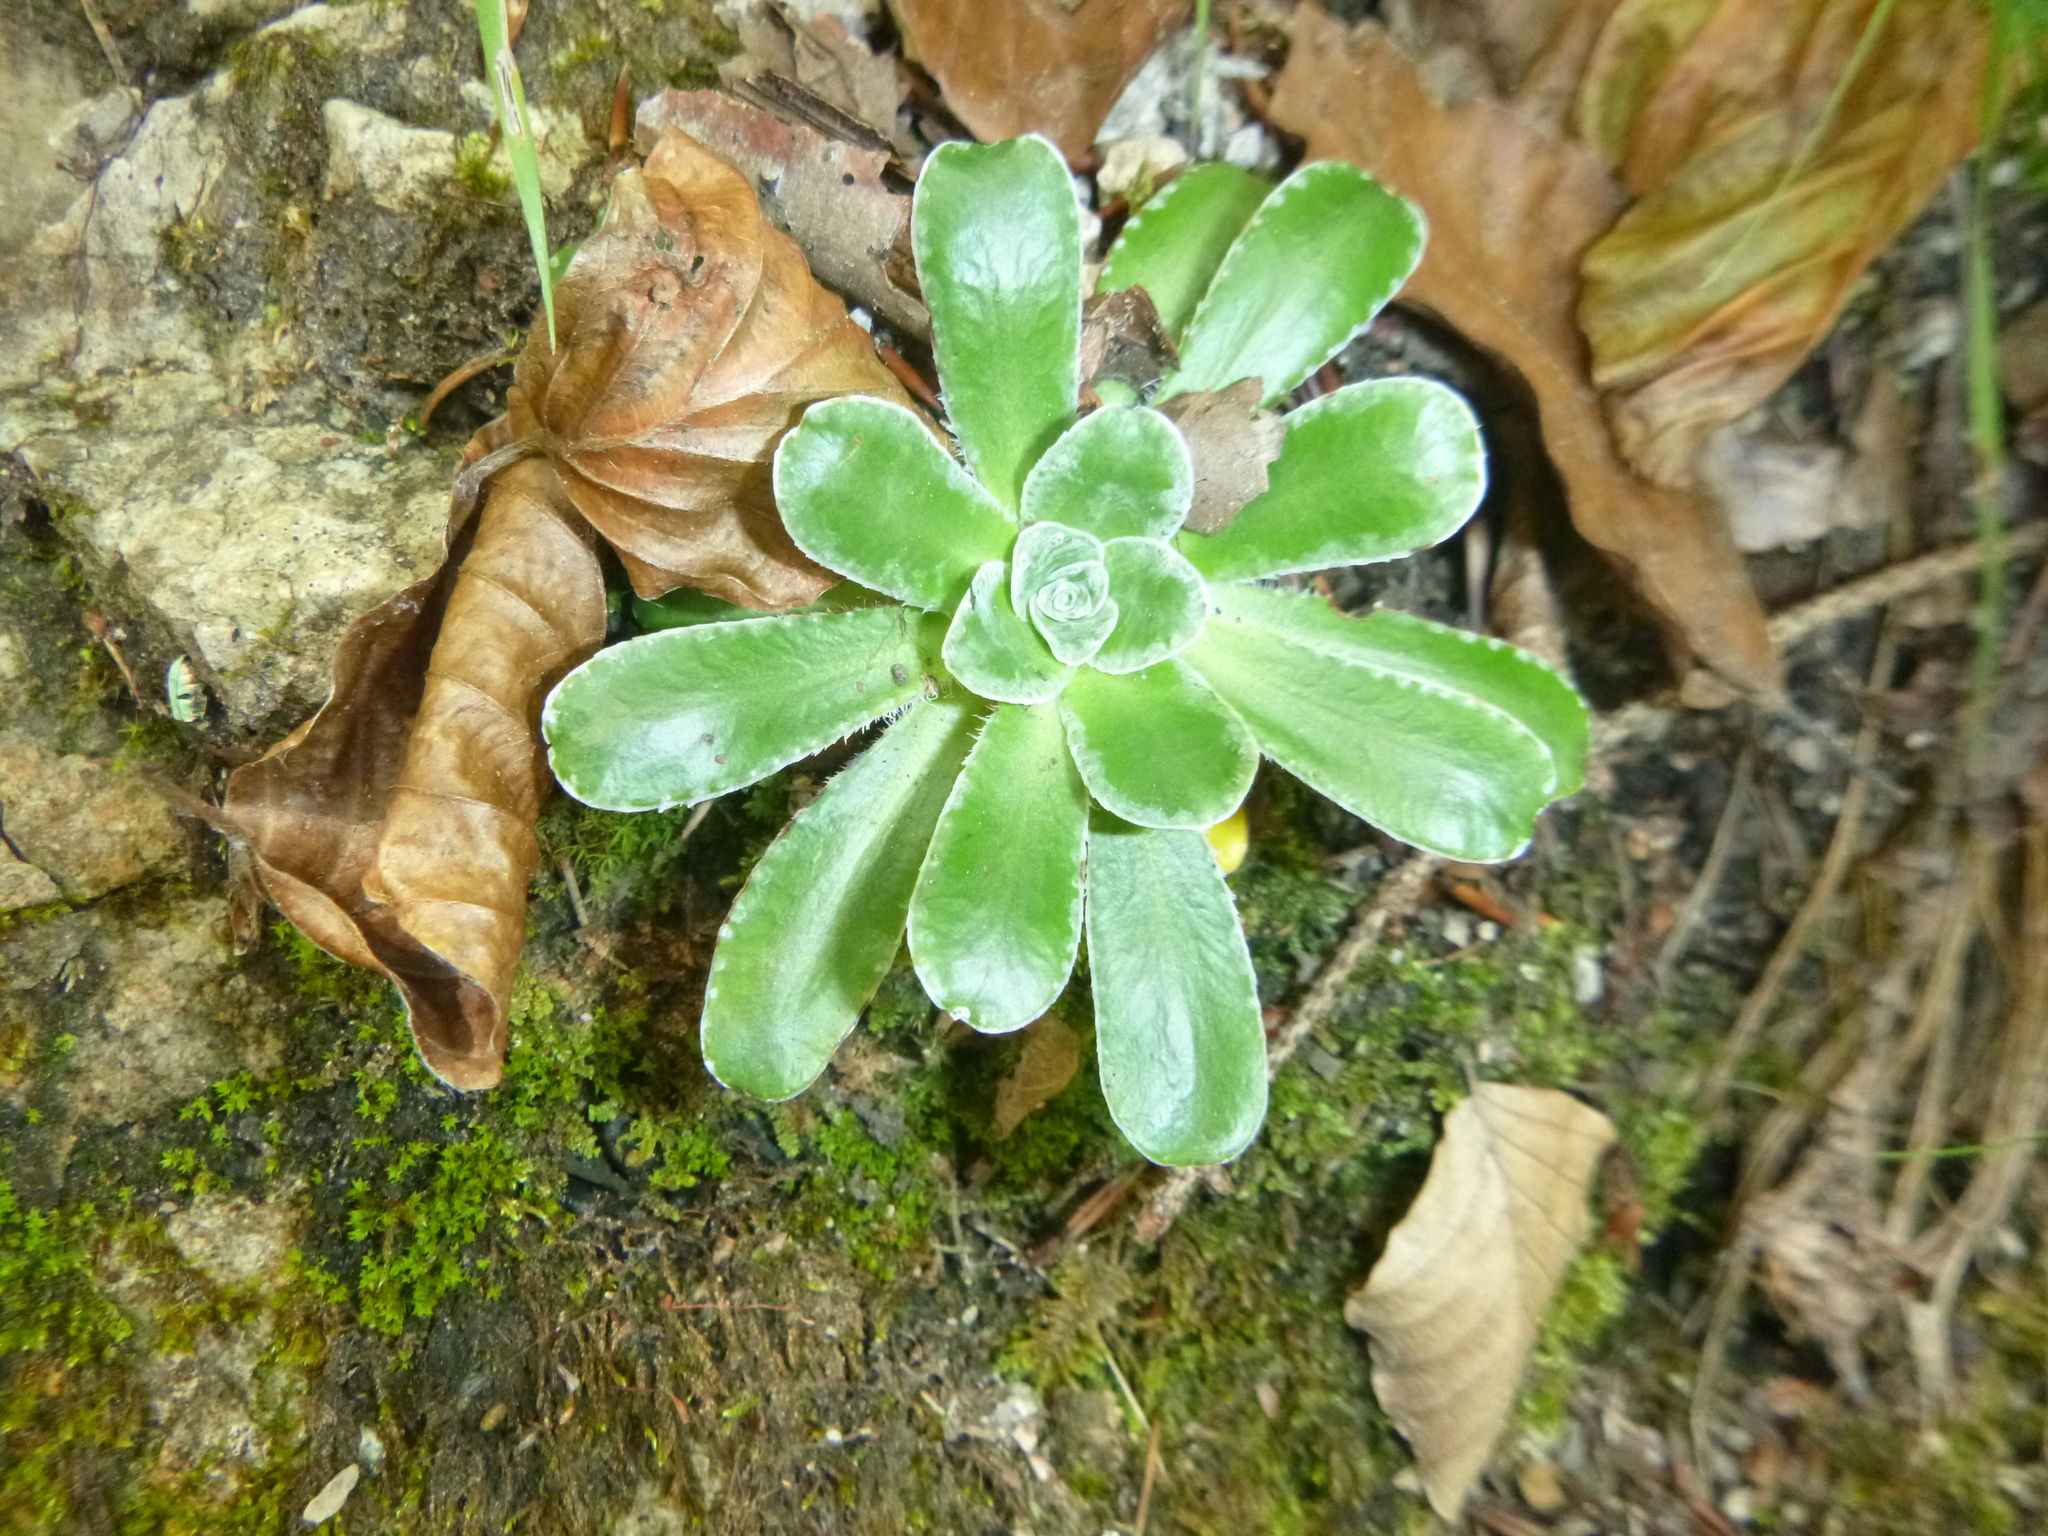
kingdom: Plantae
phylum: Tracheophyta
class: Magnoliopsida
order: Saxifragales
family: Saxifragaceae
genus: Saxifraga
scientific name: Saxifraga mutata
